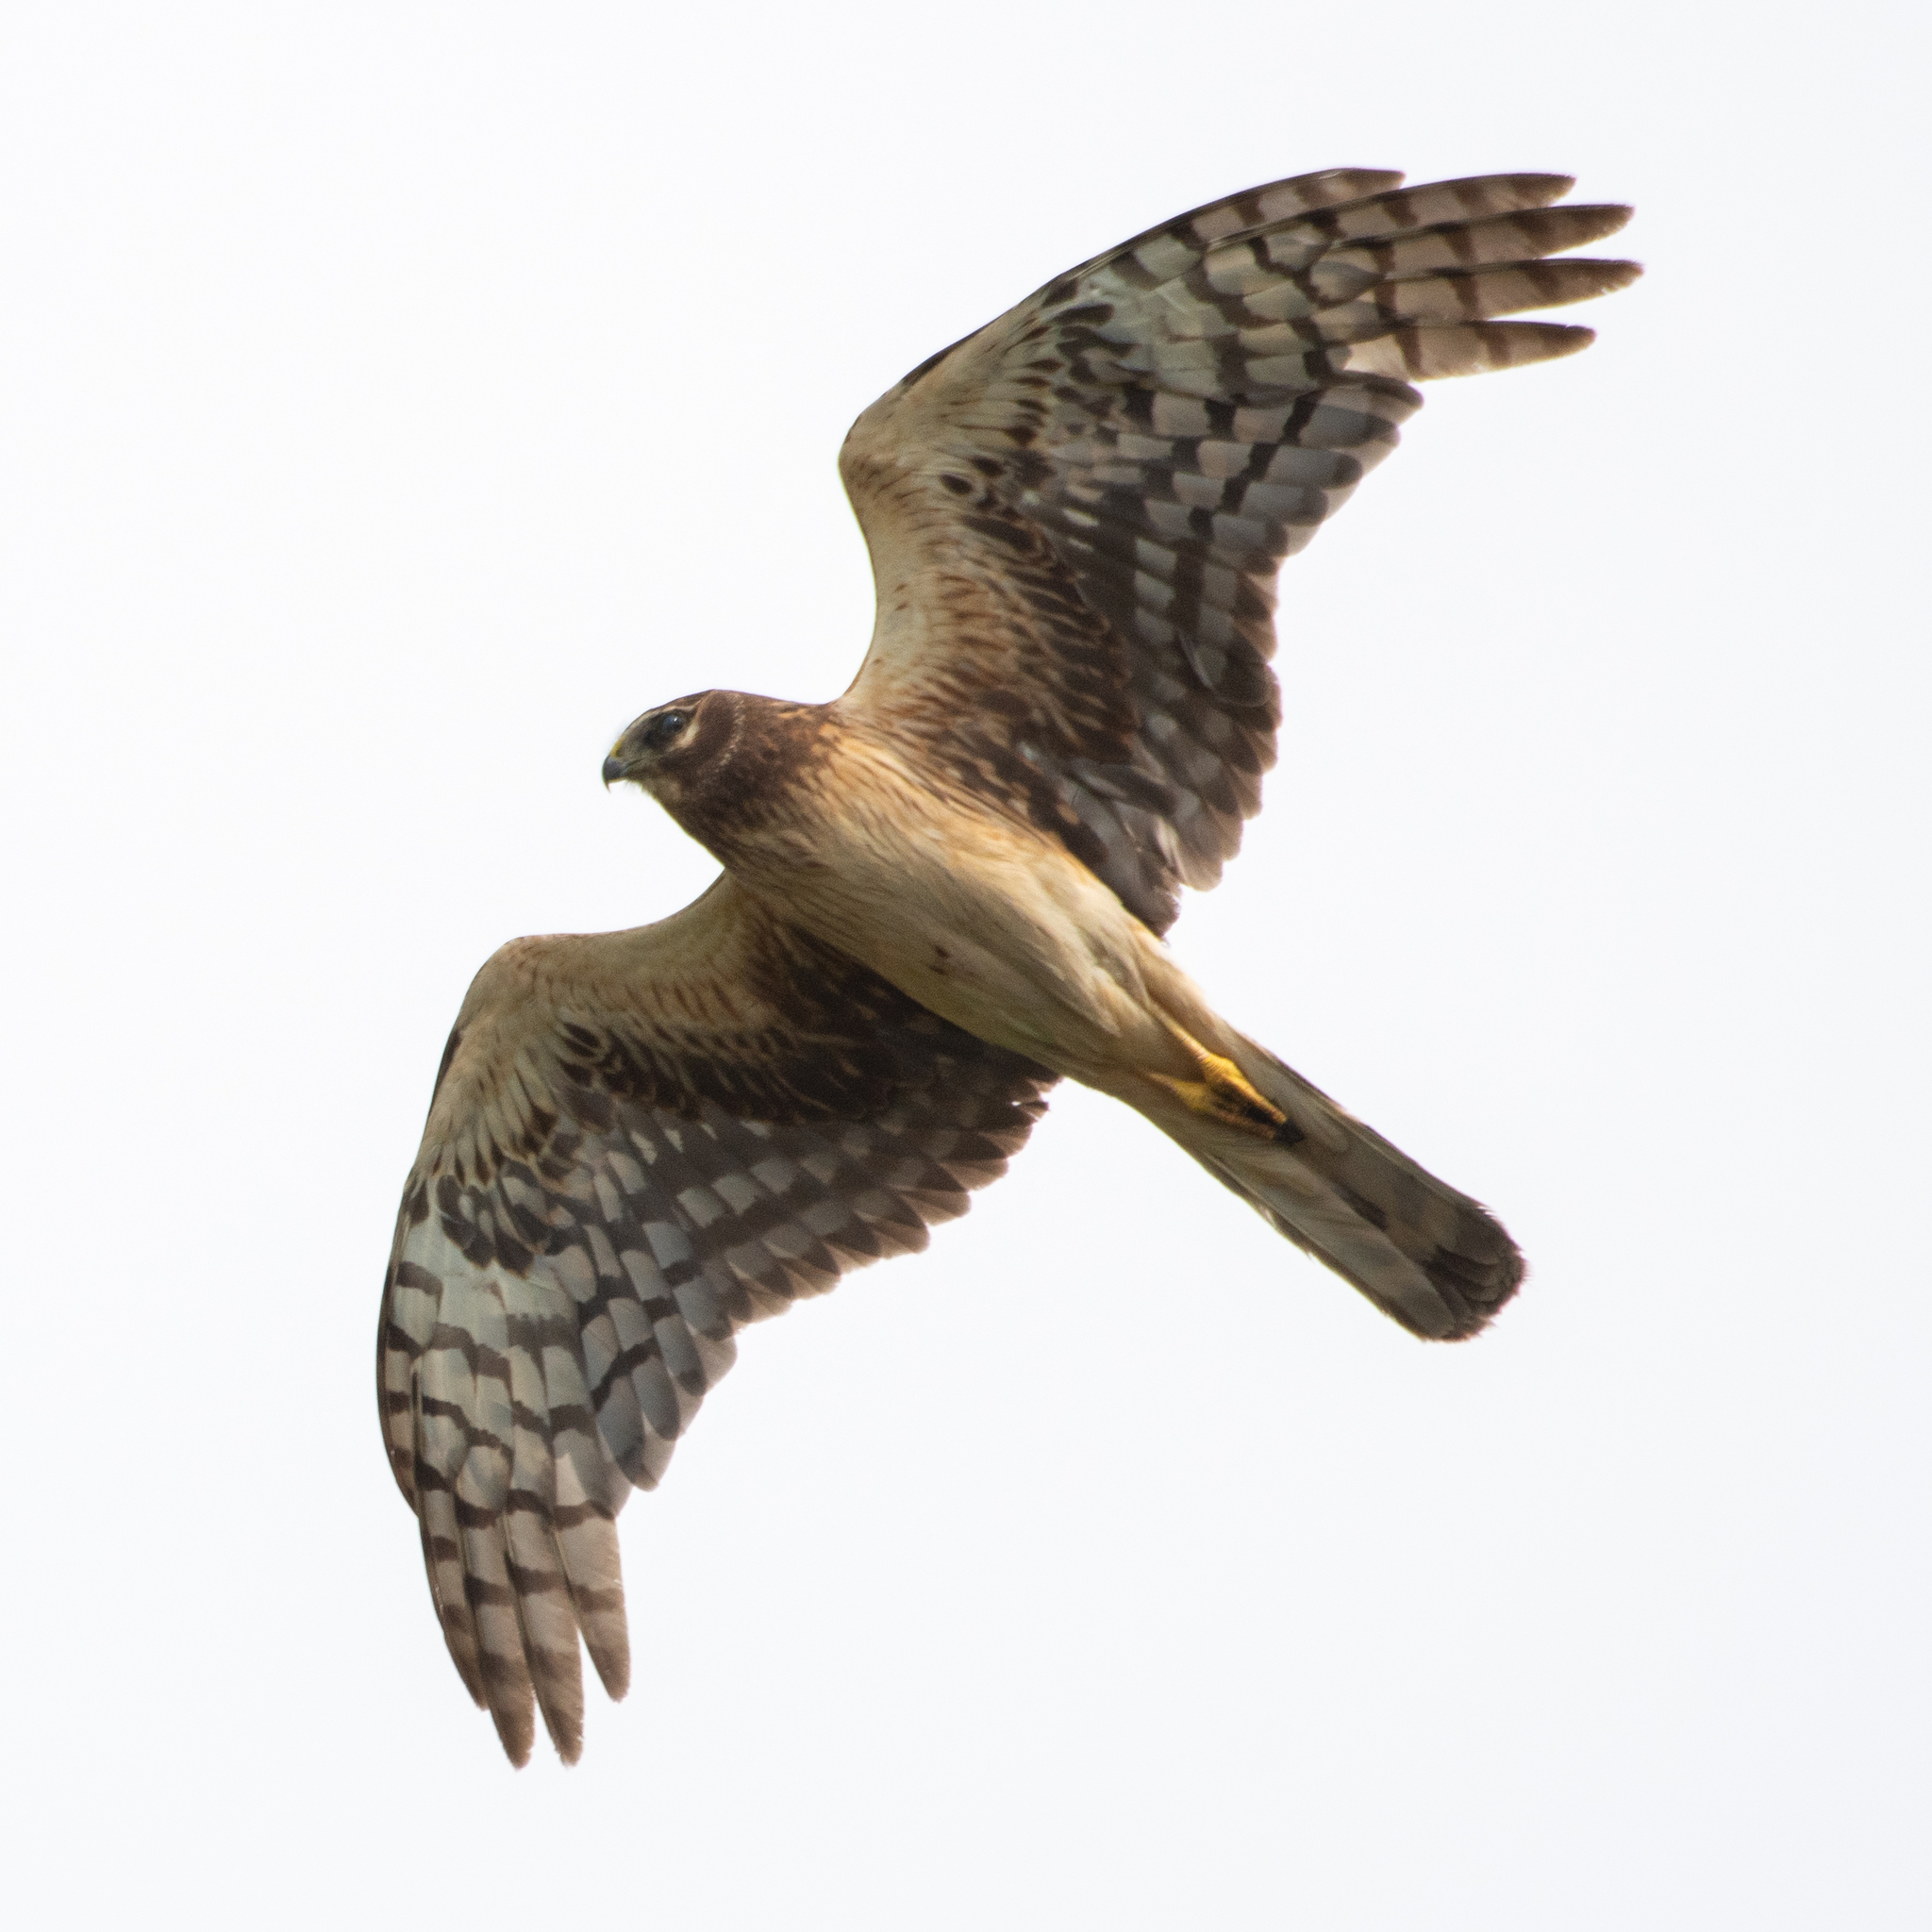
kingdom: Animalia
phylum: Chordata
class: Aves
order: Accipitriformes
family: Accipitridae
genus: Circus
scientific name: Circus cyaneus
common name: Hen harrier
